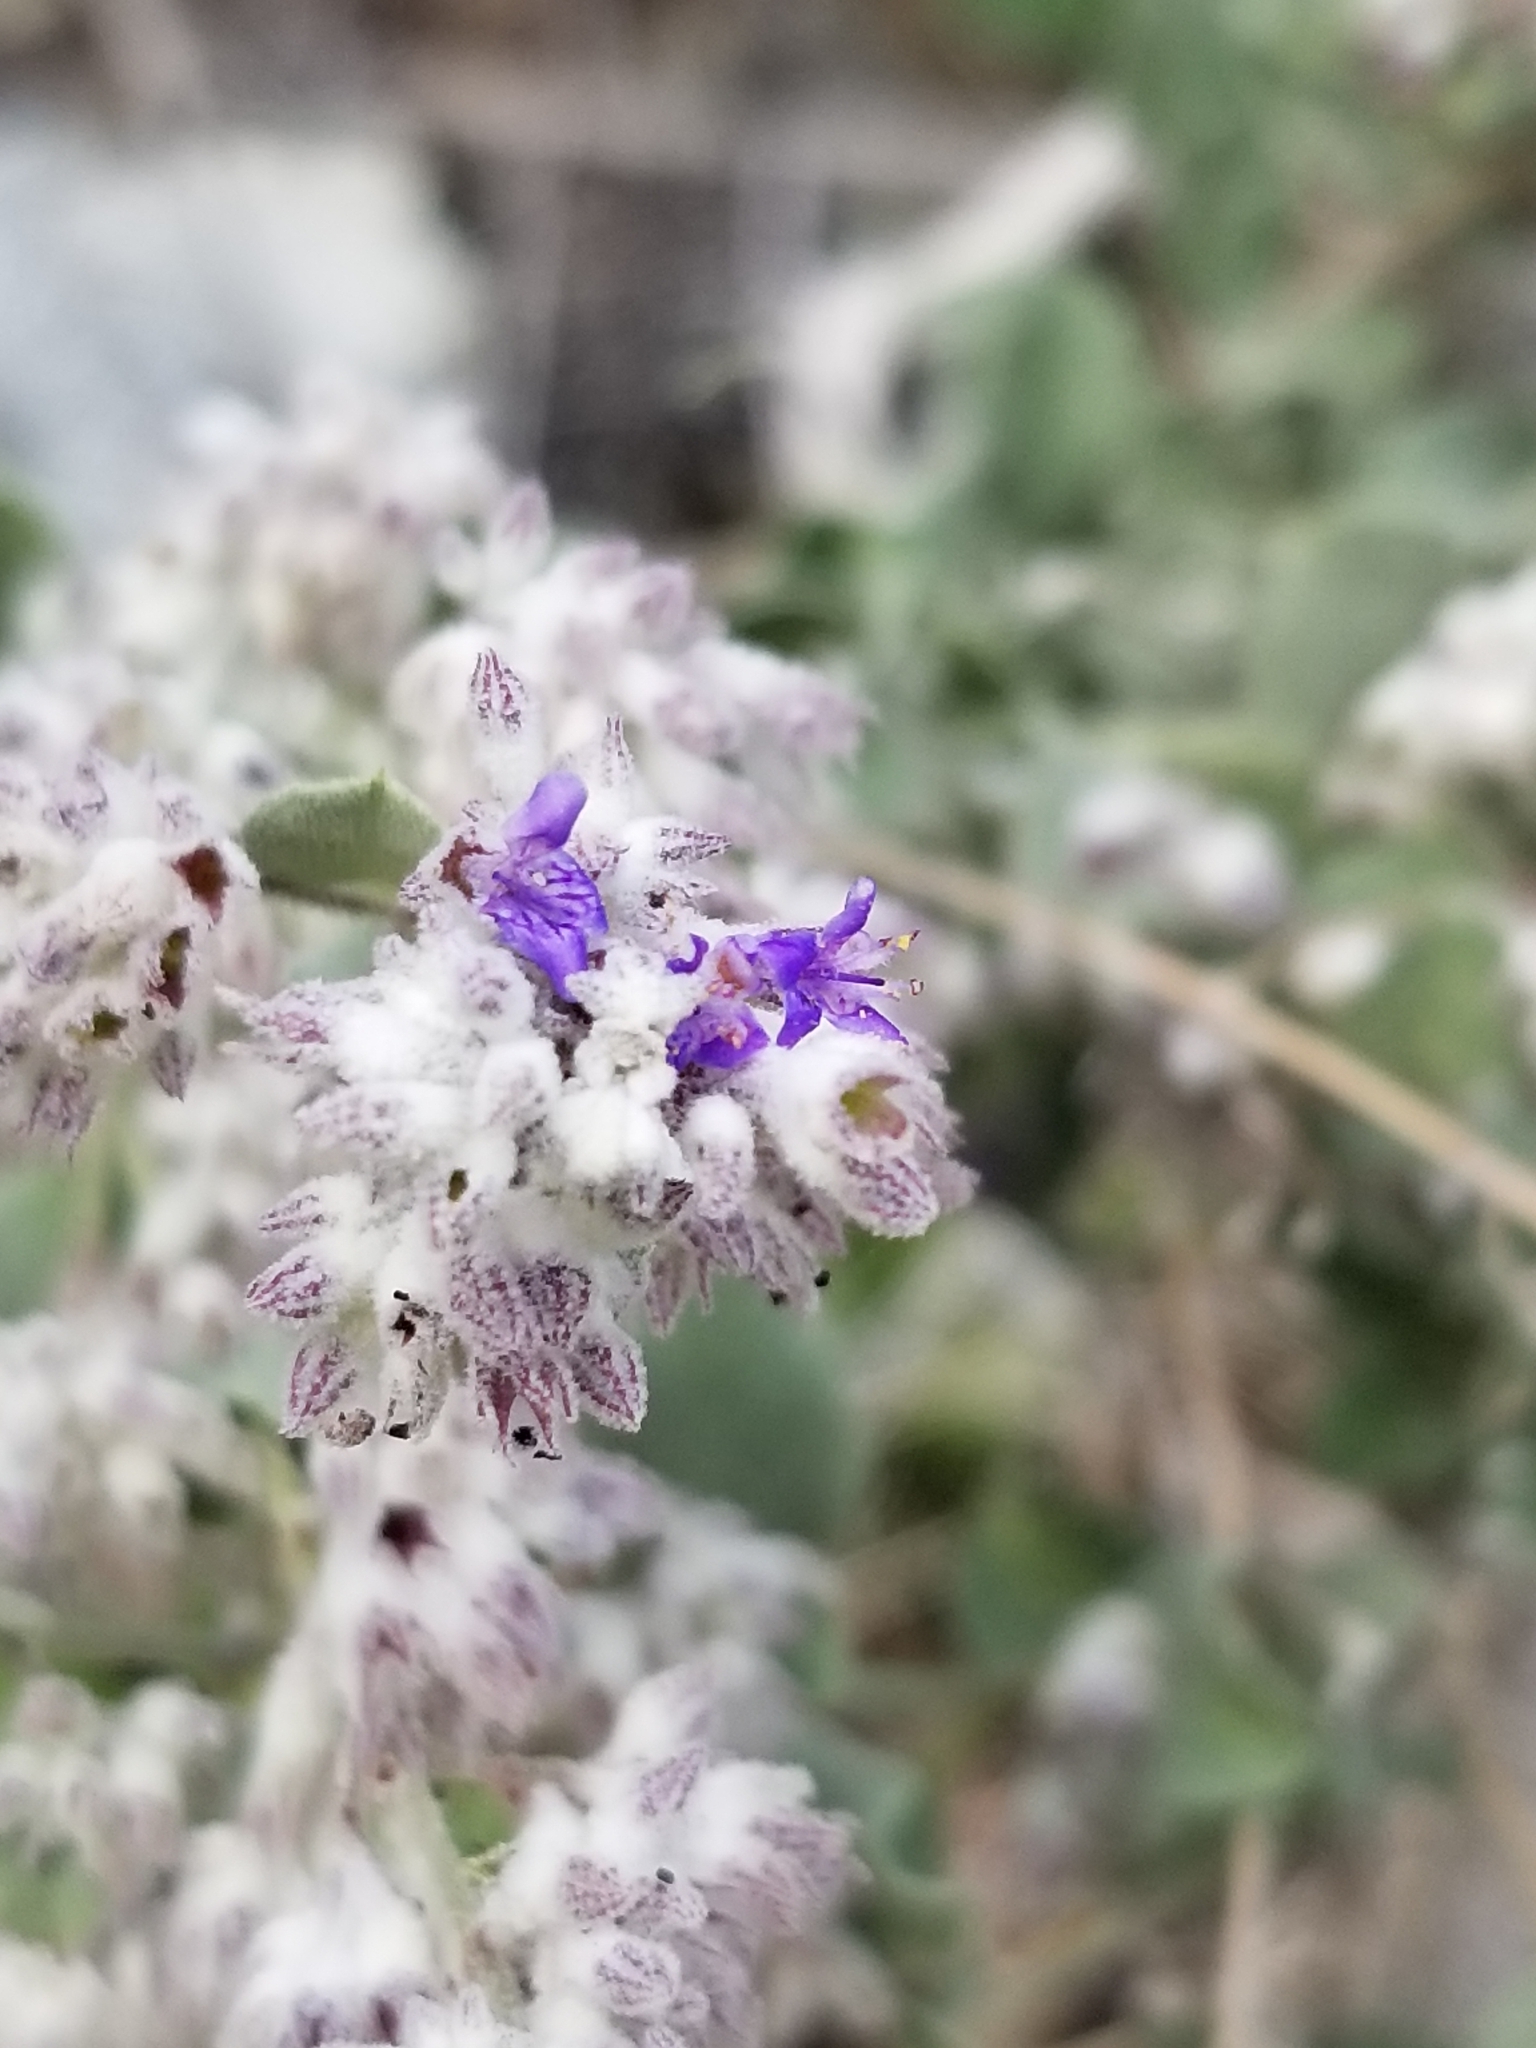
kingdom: Plantae
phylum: Tracheophyta
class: Magnoliopsida
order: Lamiales
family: Lamiaceae
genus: Condea
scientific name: Condea emoryi
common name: Chia
